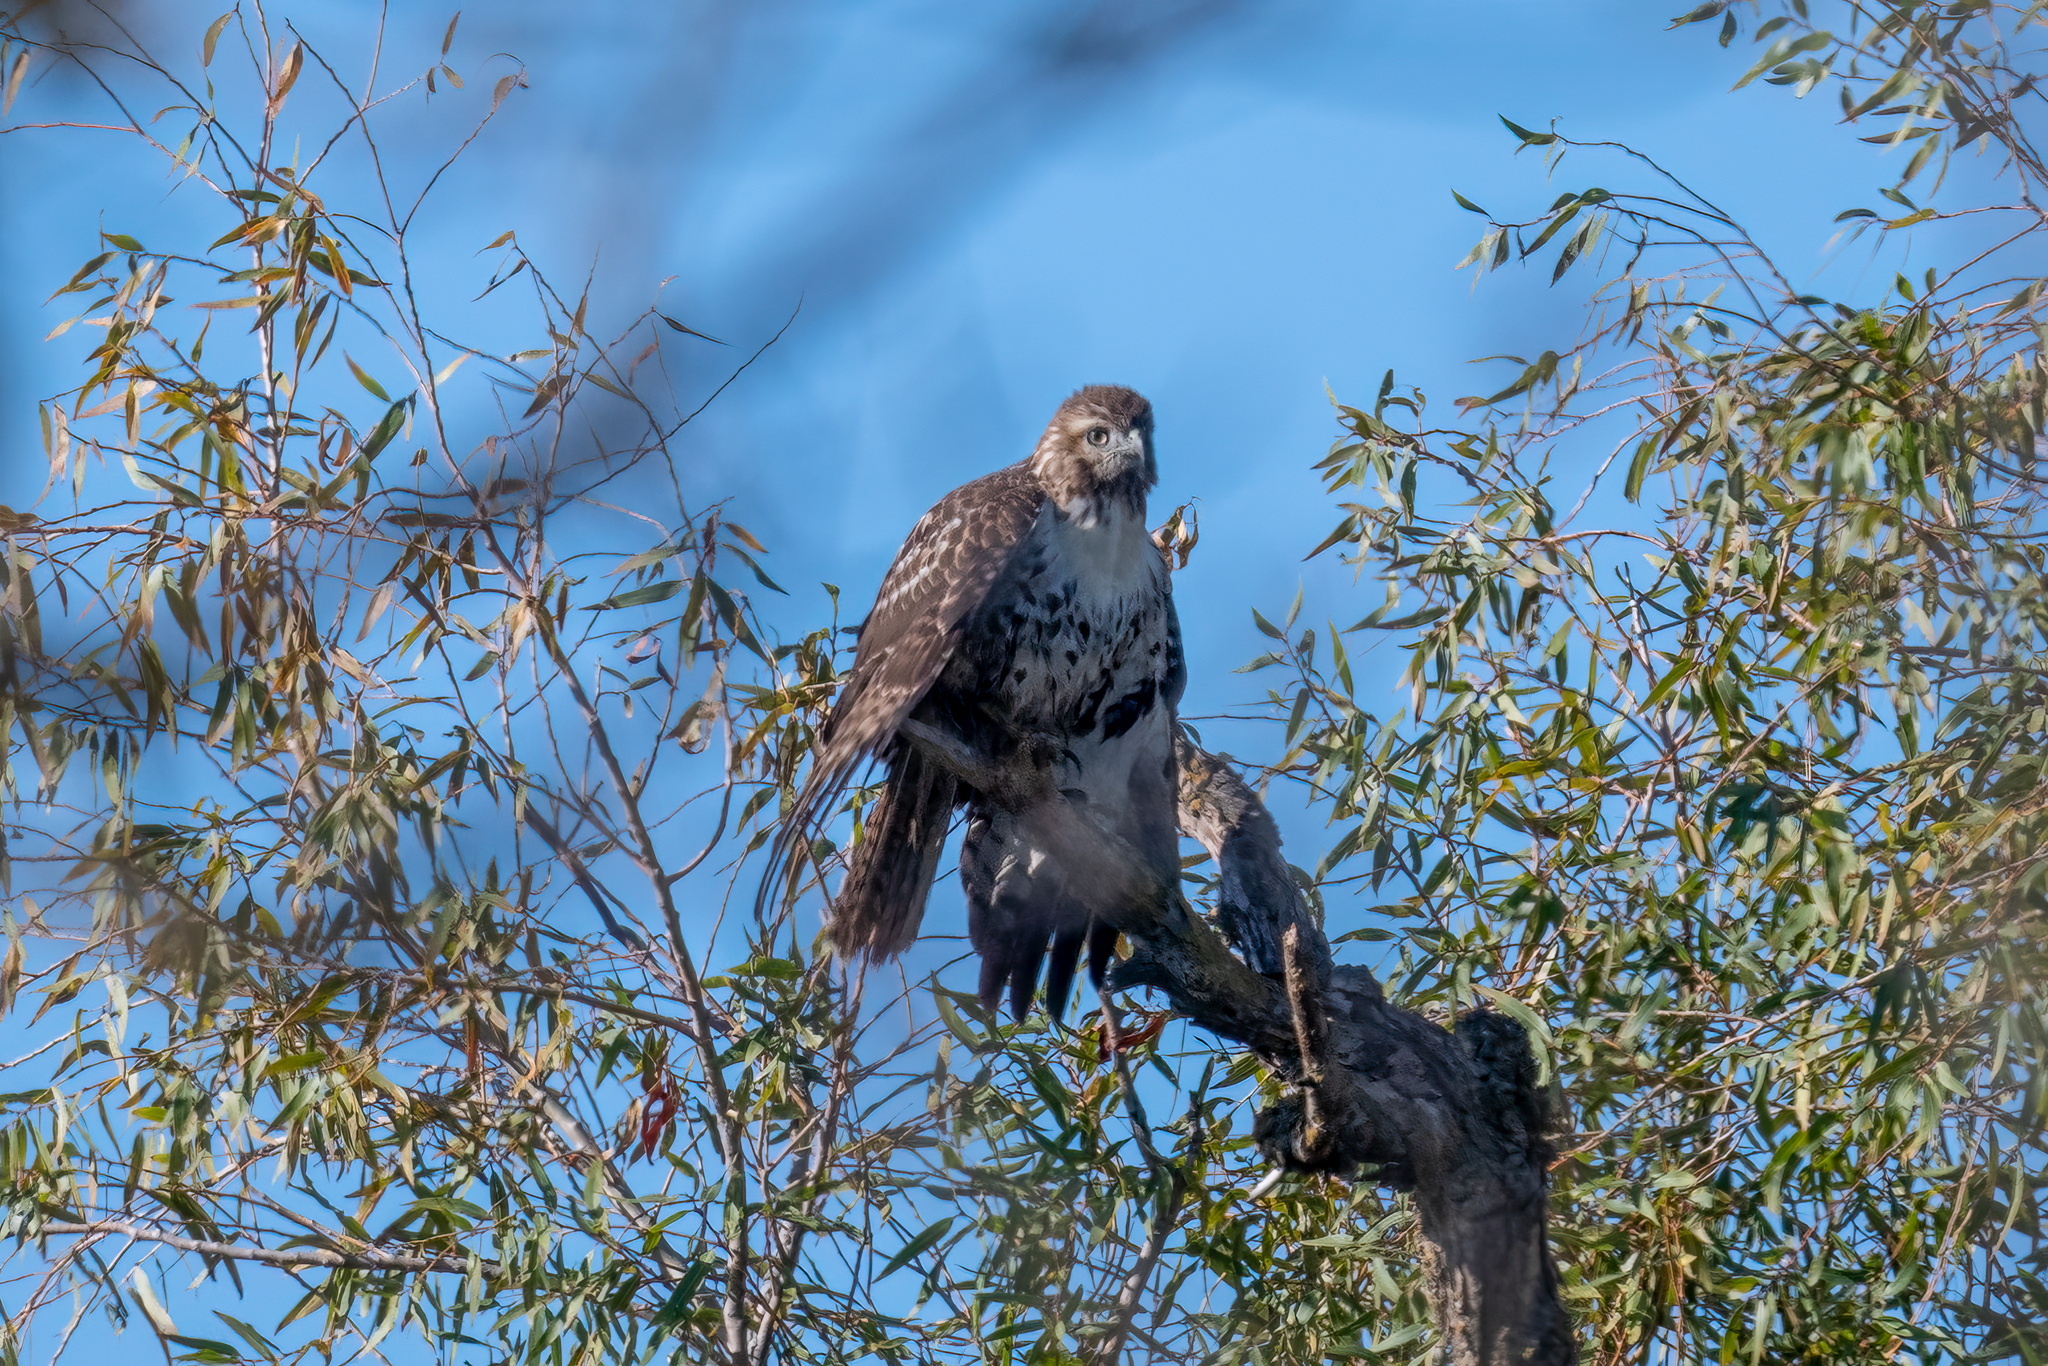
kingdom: Animalia
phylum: Chordata
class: Aves
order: Accipitriformes
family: Accipitridae
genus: Buteo
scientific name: Buteo jamaicensis
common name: Red-tailed hawk
